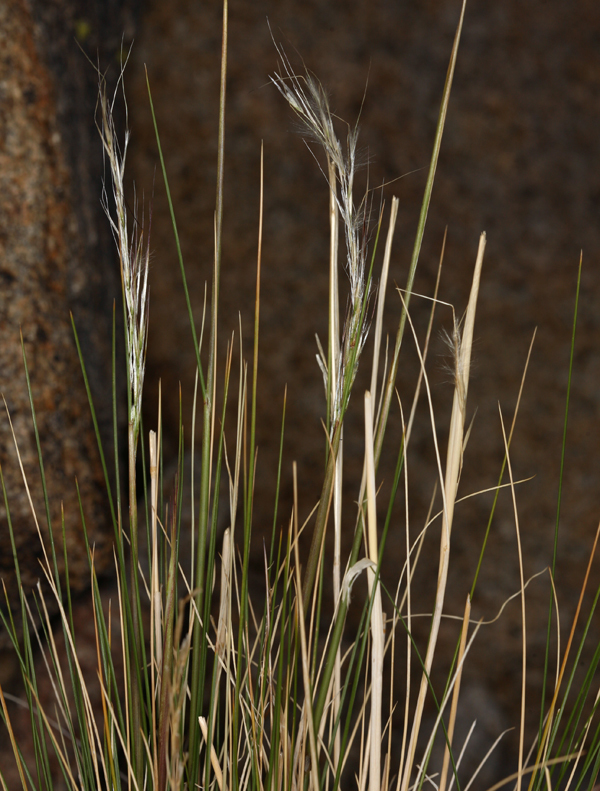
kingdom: Plantae
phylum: Tracheophyta
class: Liliopsida
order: Poales
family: Poaceae
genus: Pappostipa
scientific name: Pappostipa speciosa
